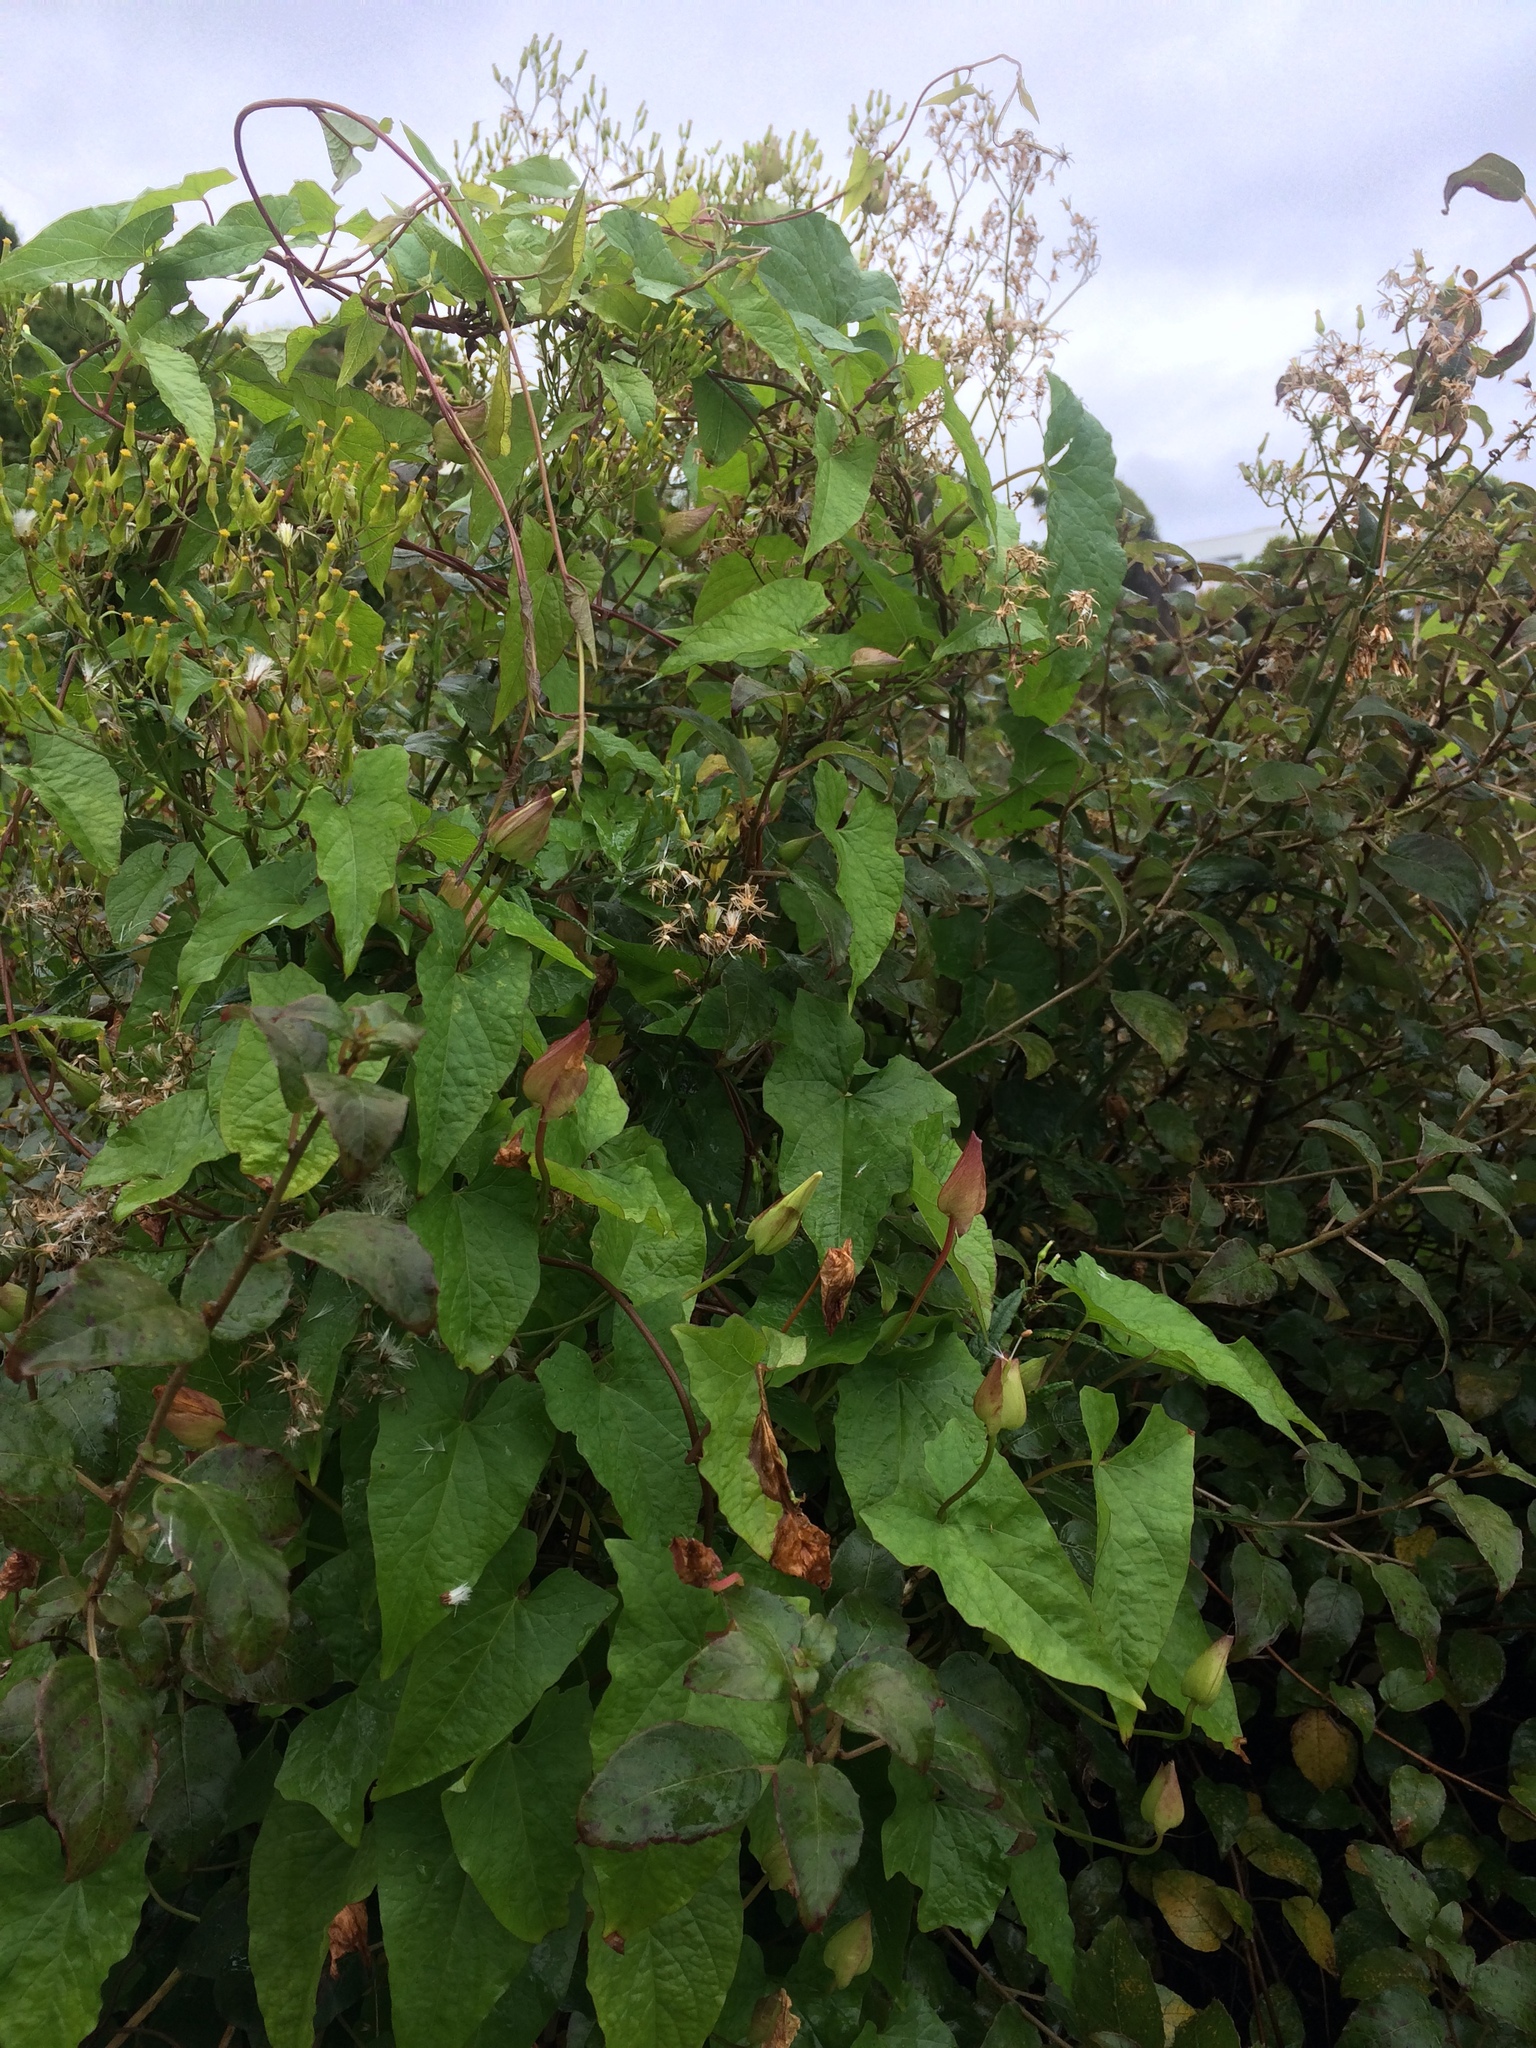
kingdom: Plantae
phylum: Tracheophyta
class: Magnoliopsida
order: Solanales
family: Convolvulaceae
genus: Calystegia
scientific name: Calystegia silvatica
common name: Large bindweed
